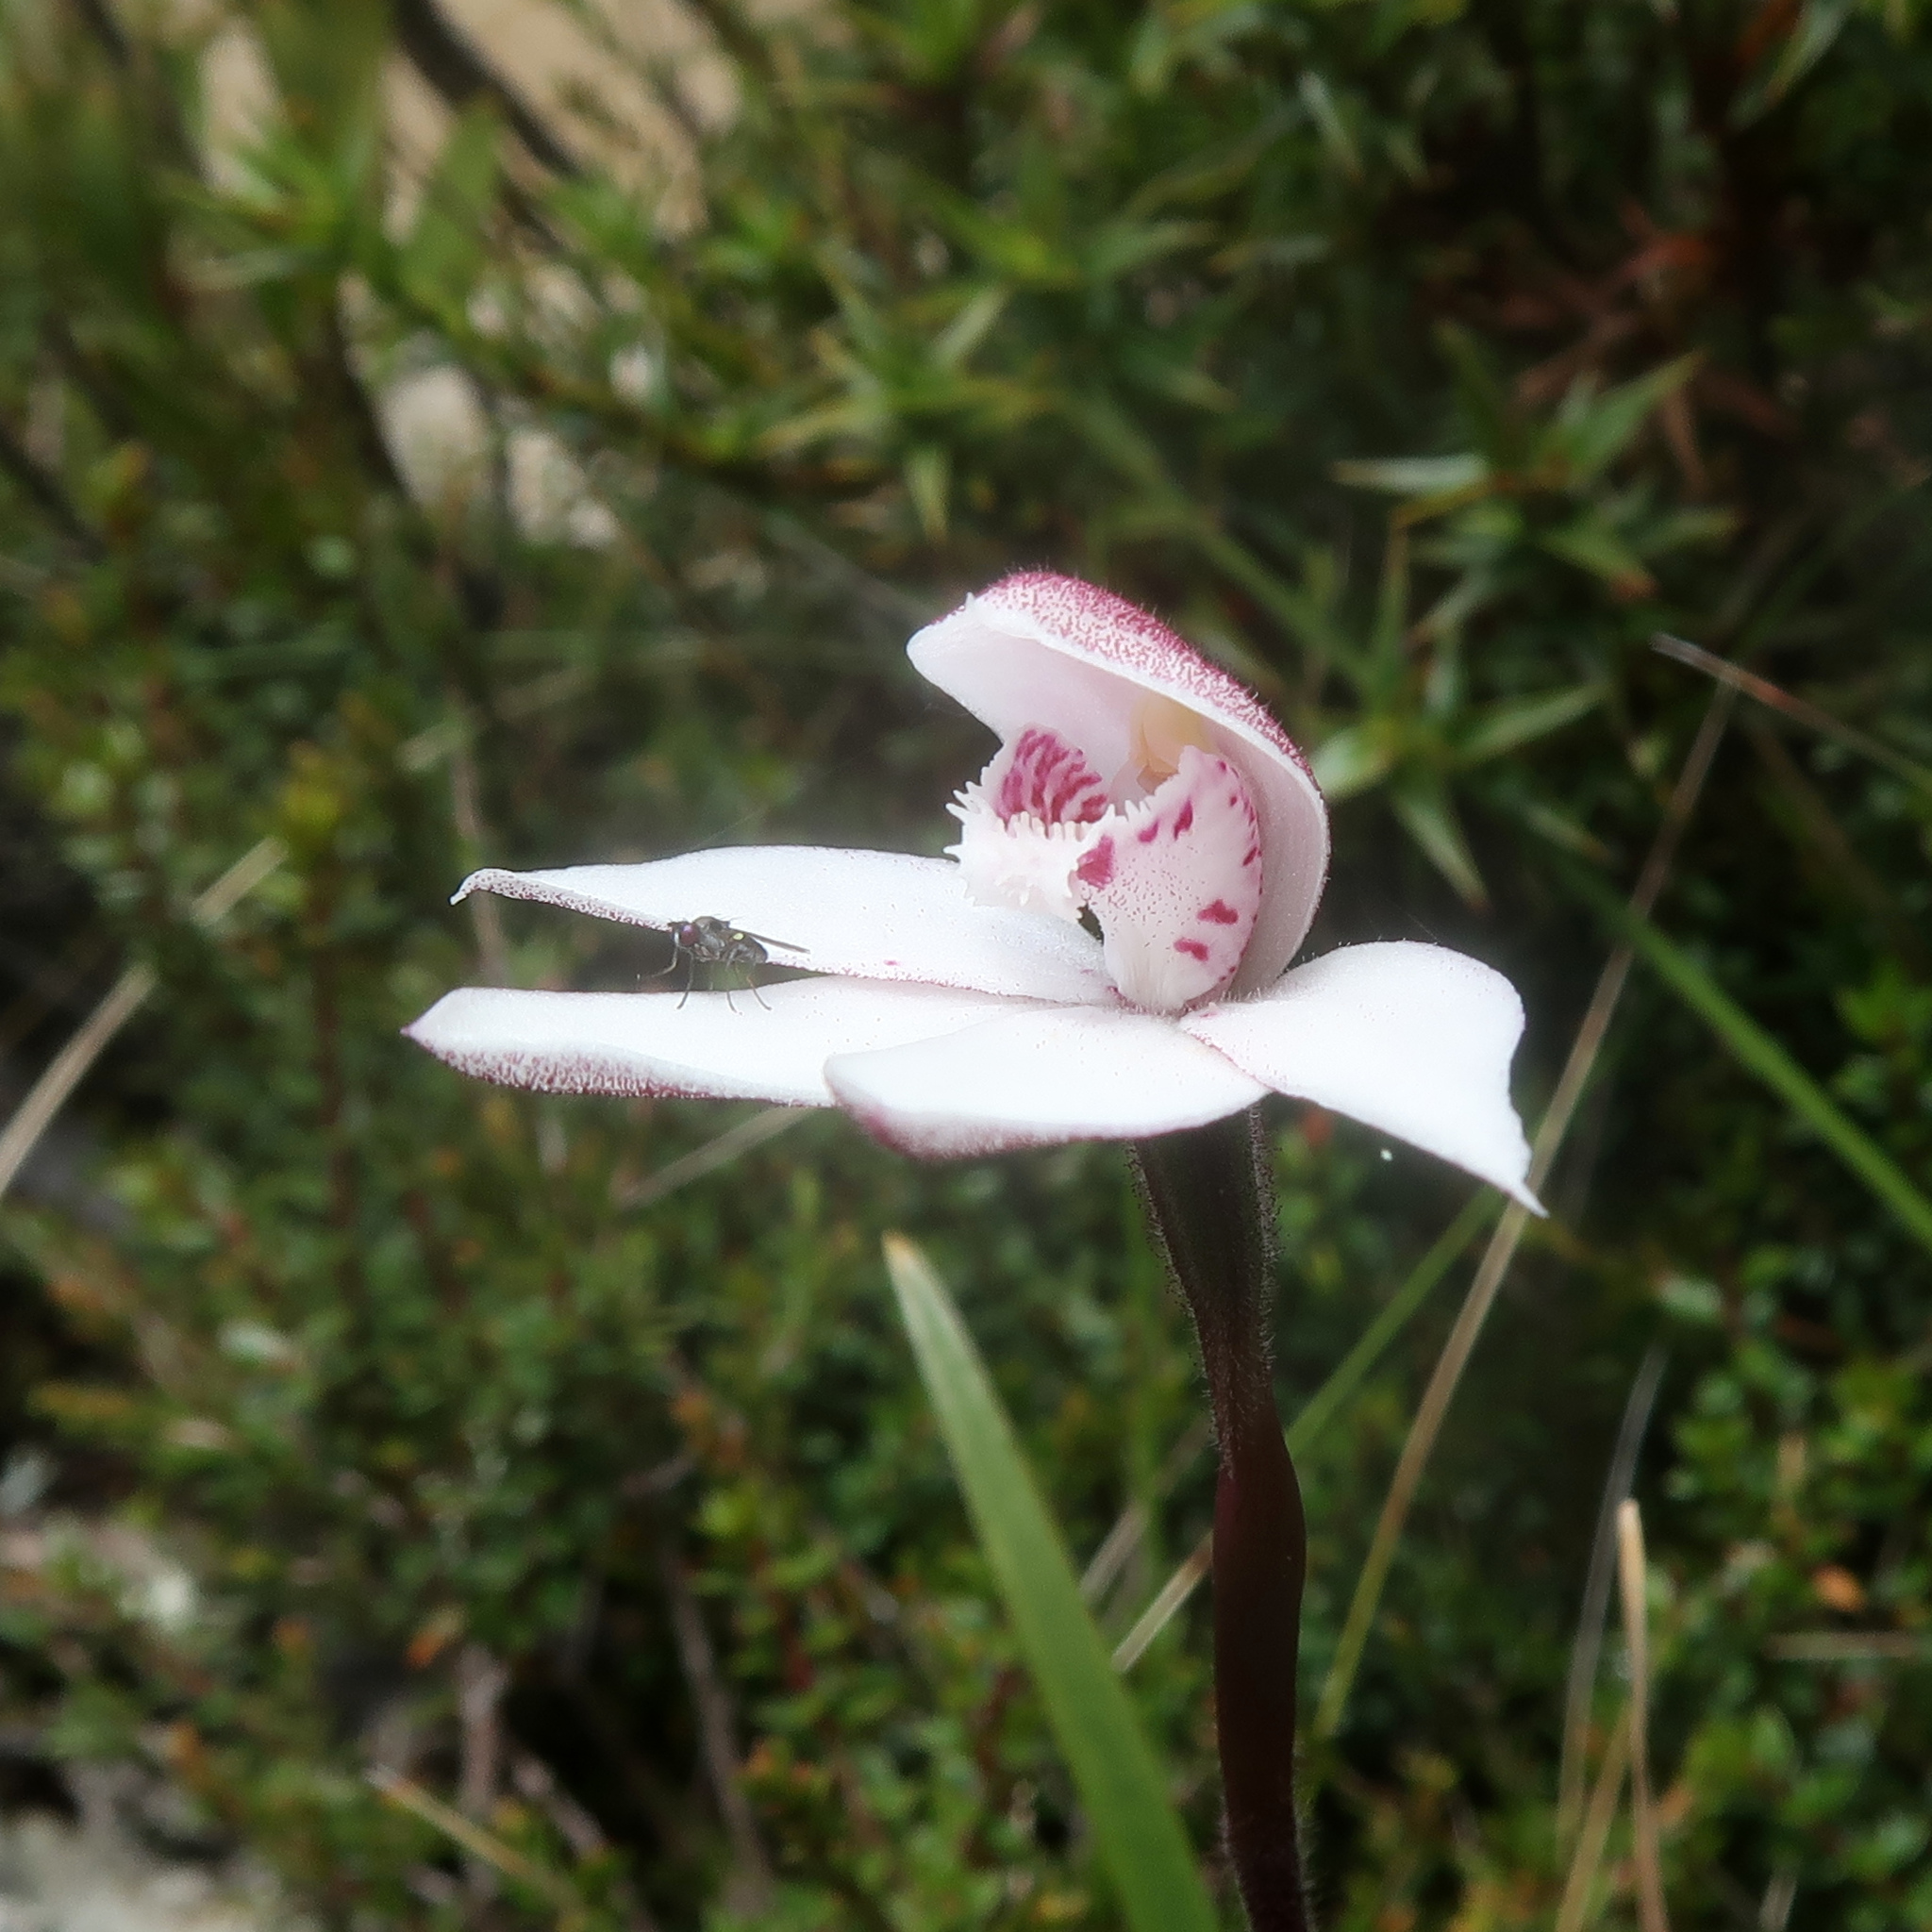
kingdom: Plantae
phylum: Tracheophyta
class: Liliopsida
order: Asparagales
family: Orchidaceae
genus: Caladenia
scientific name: Caladenia alpina
